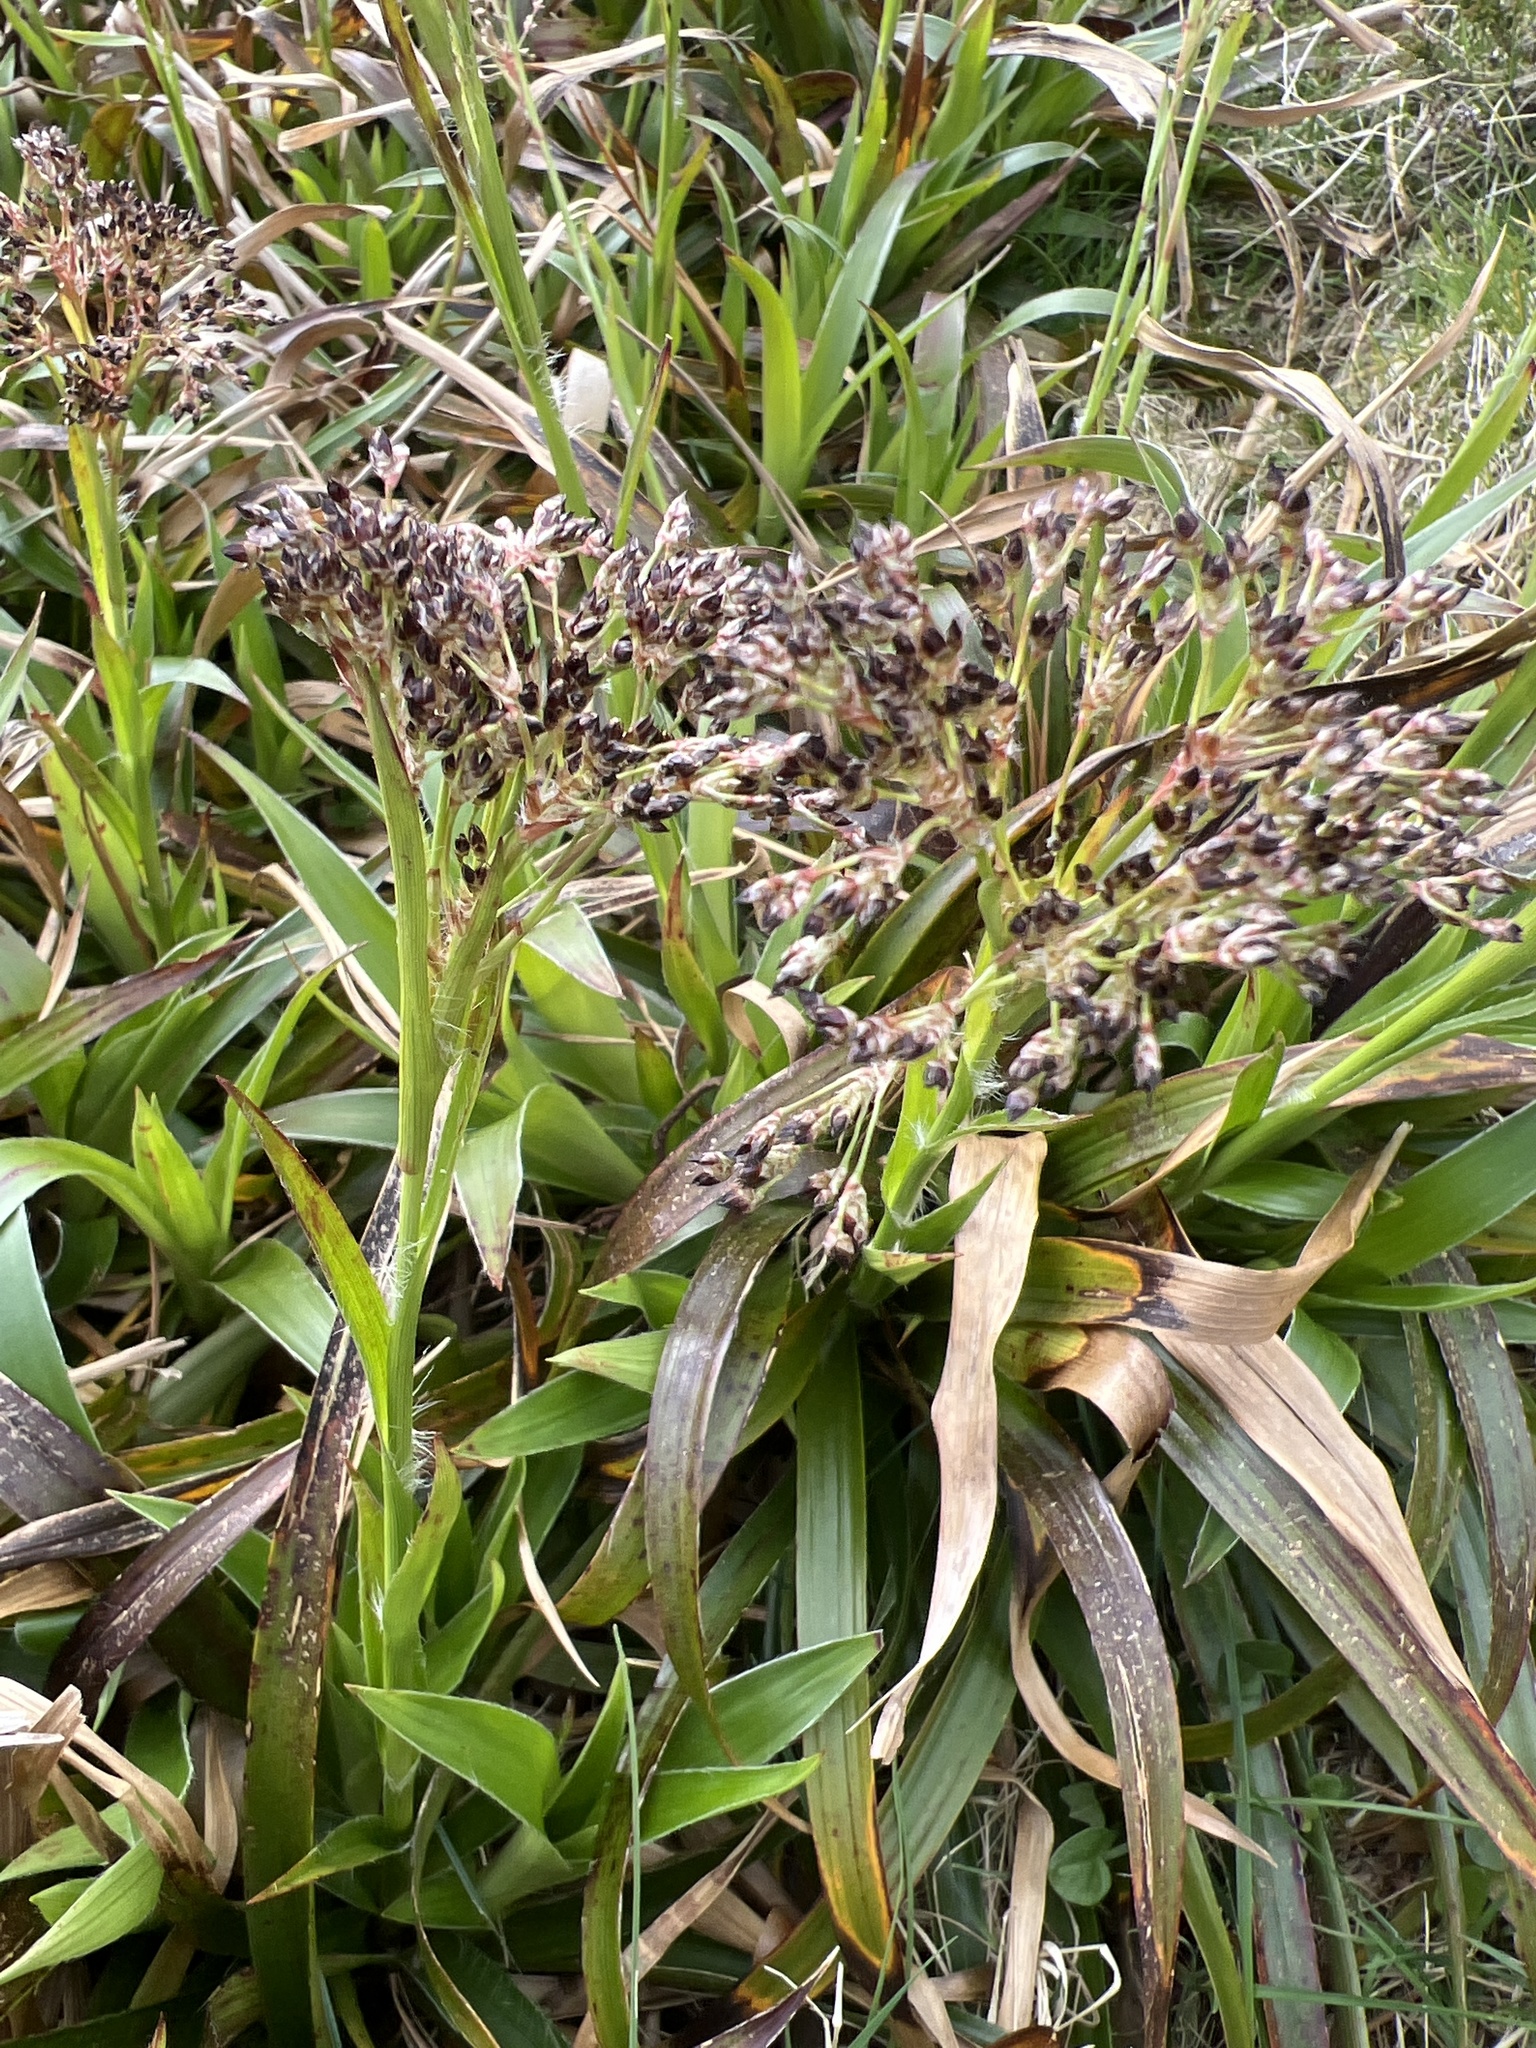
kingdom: Plantae
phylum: Tracheophyta
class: Liliopsida
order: Poales
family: Juncaceae
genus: Luzula
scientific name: Luzula sylvatica
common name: Great wood-rush
